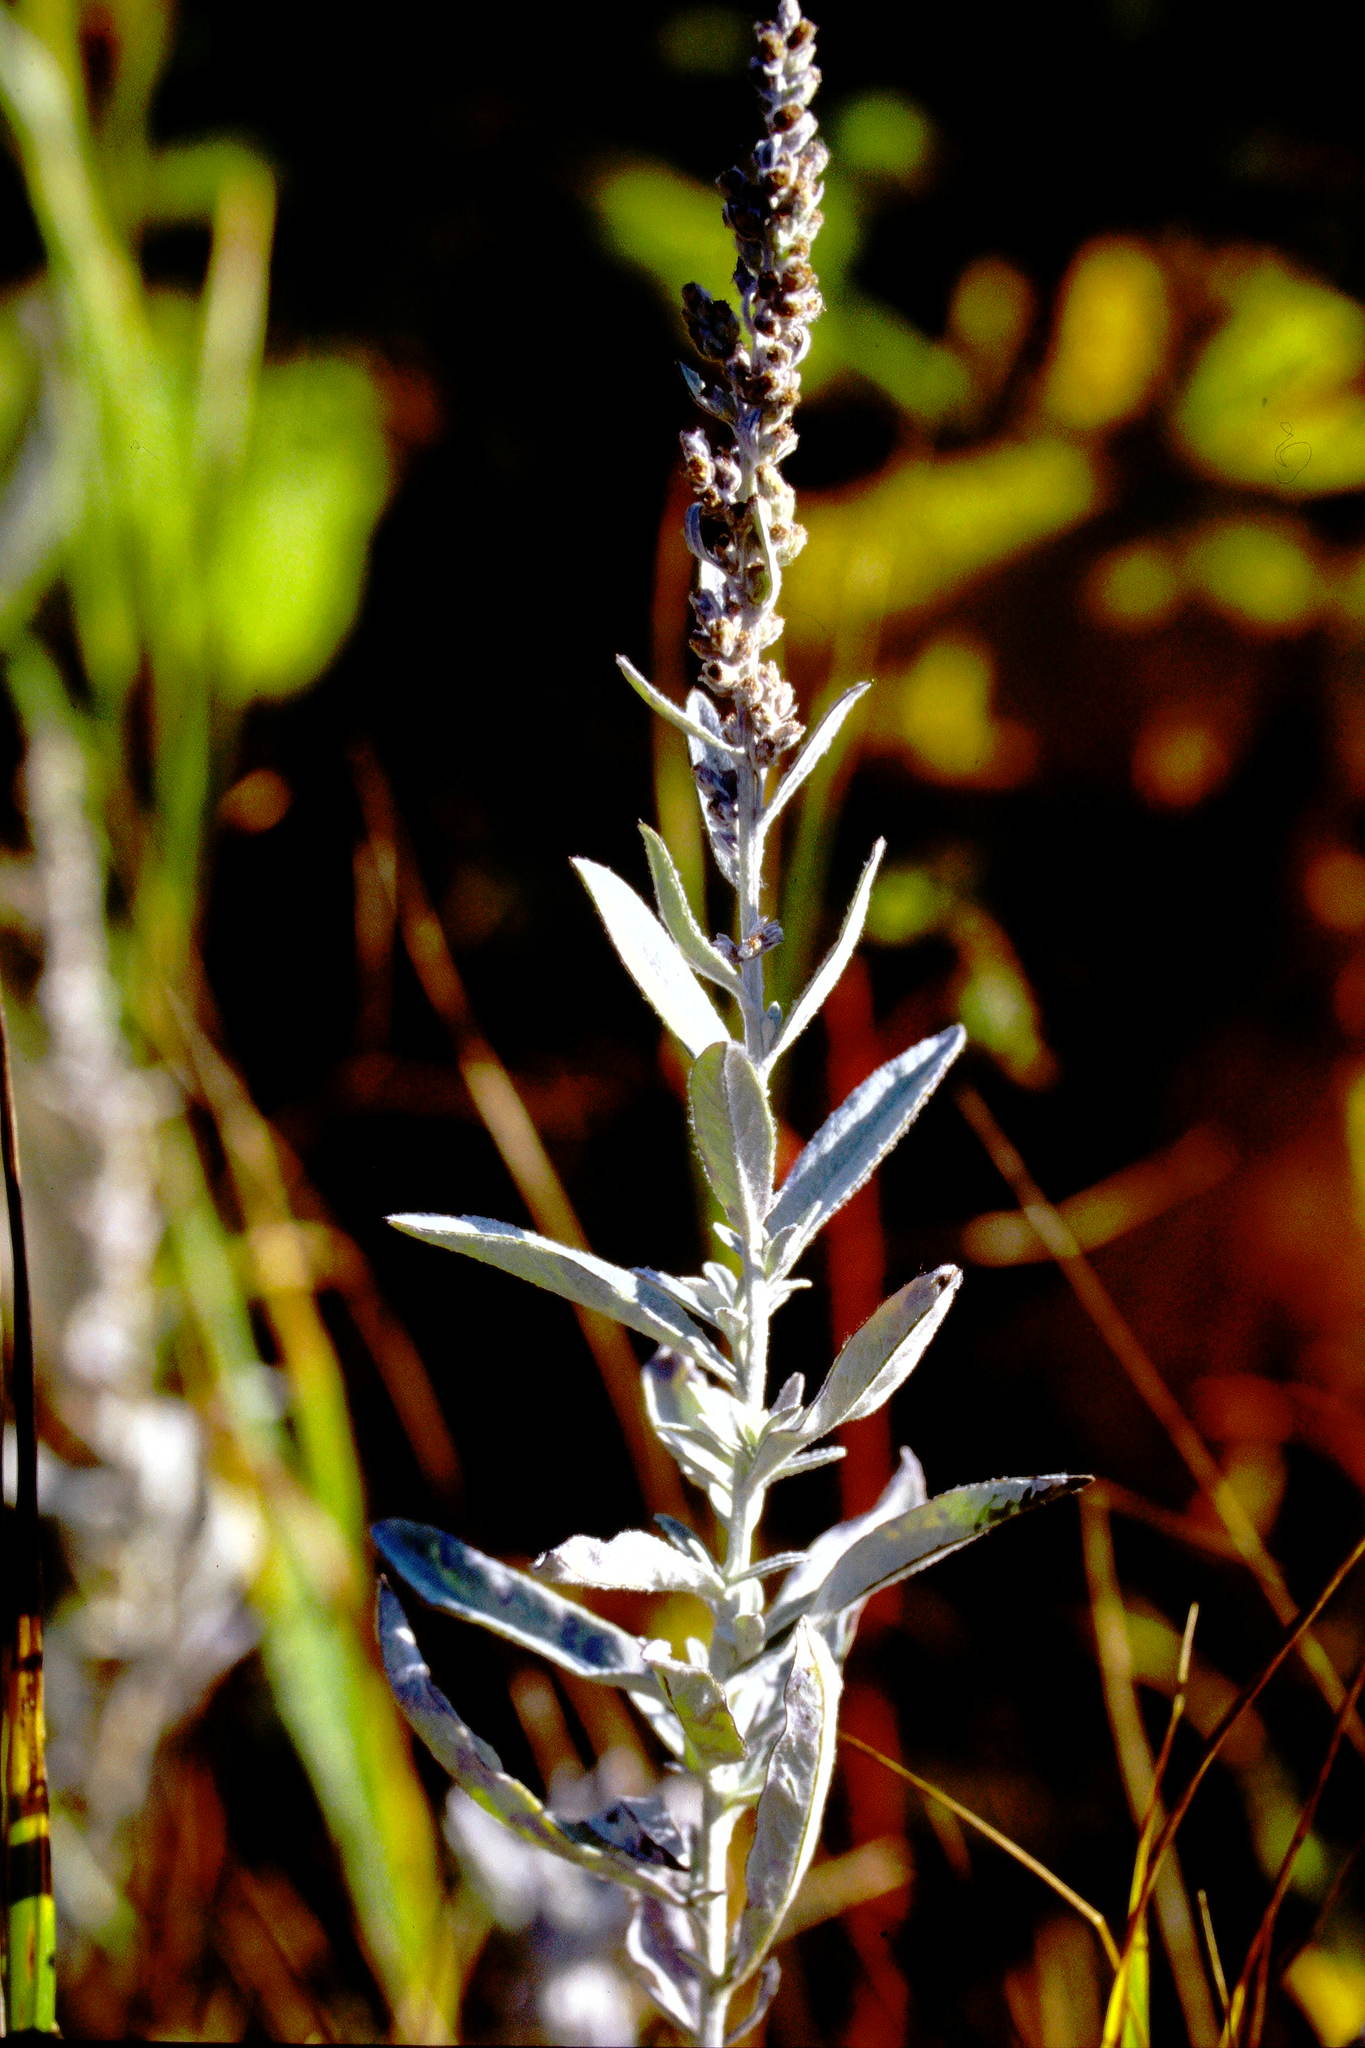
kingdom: Plantae
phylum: Tracheophyta
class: Magnoliopsida
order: Asterales
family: Asteraceae
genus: Artemisia
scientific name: Artemisia ludoviciana
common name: Western mugwort
